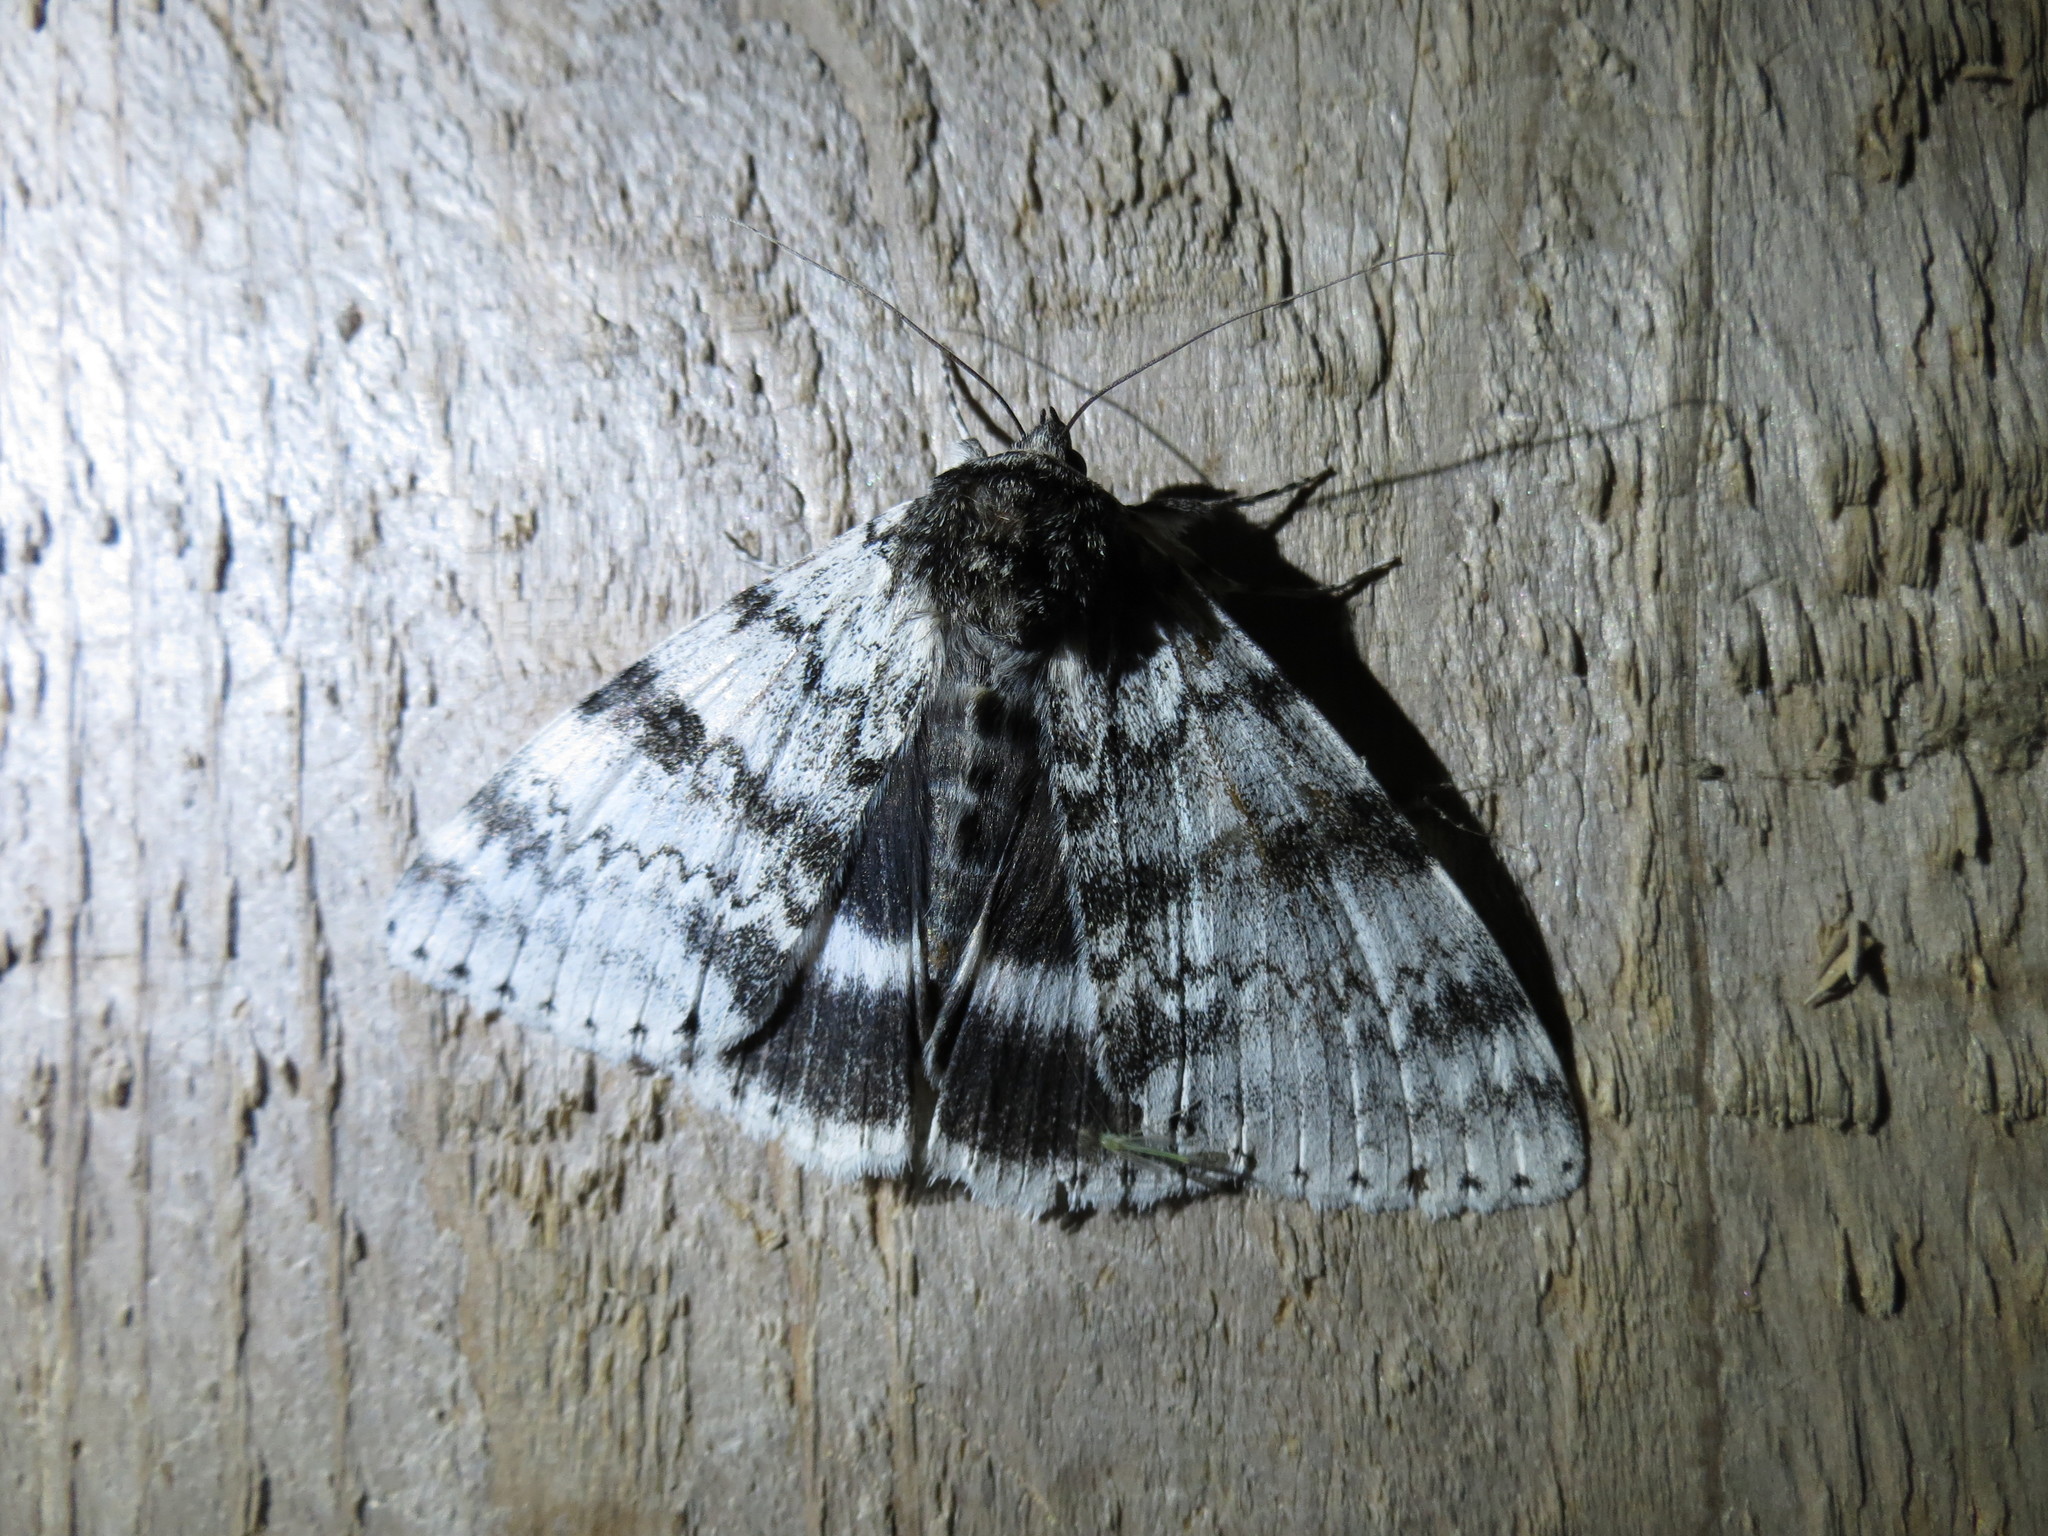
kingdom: Animalia
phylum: Arthropoda
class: Insecta
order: Lepidoptera
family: Erebidae
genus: Catocala
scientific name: Catocala relicta
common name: White underwing
